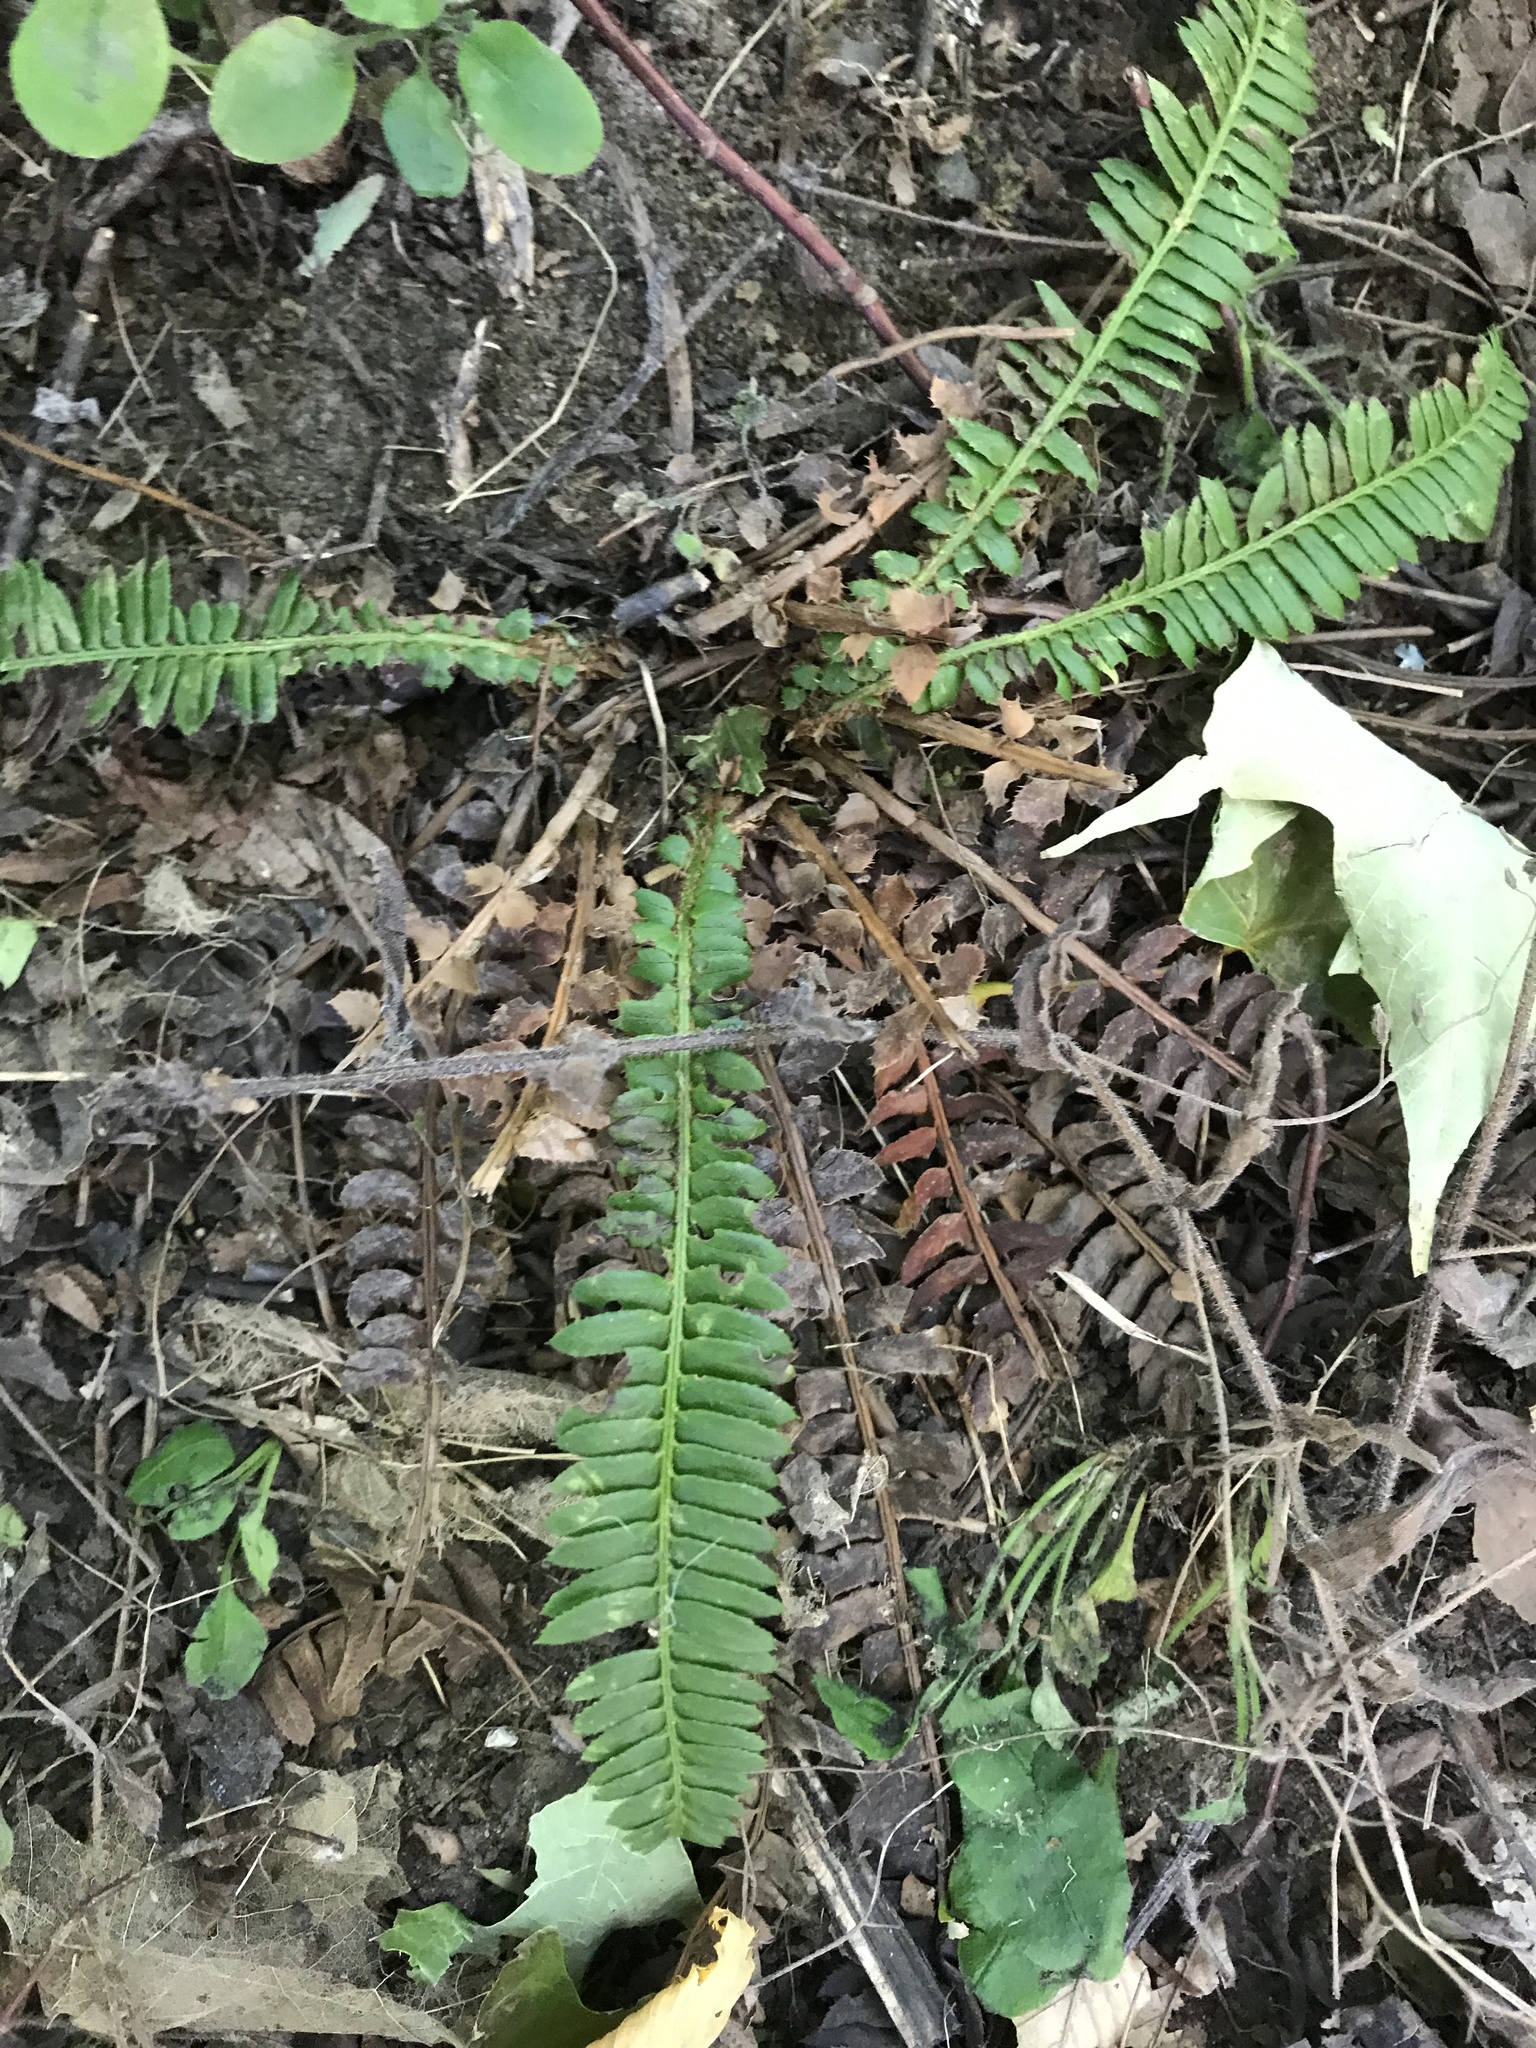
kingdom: Plantae
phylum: Tracheophyta
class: Polypodiopsida
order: Polypodiales
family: Dryopteridaceae
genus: Polystichum
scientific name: Polystichum lonchitis
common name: Holly fern
